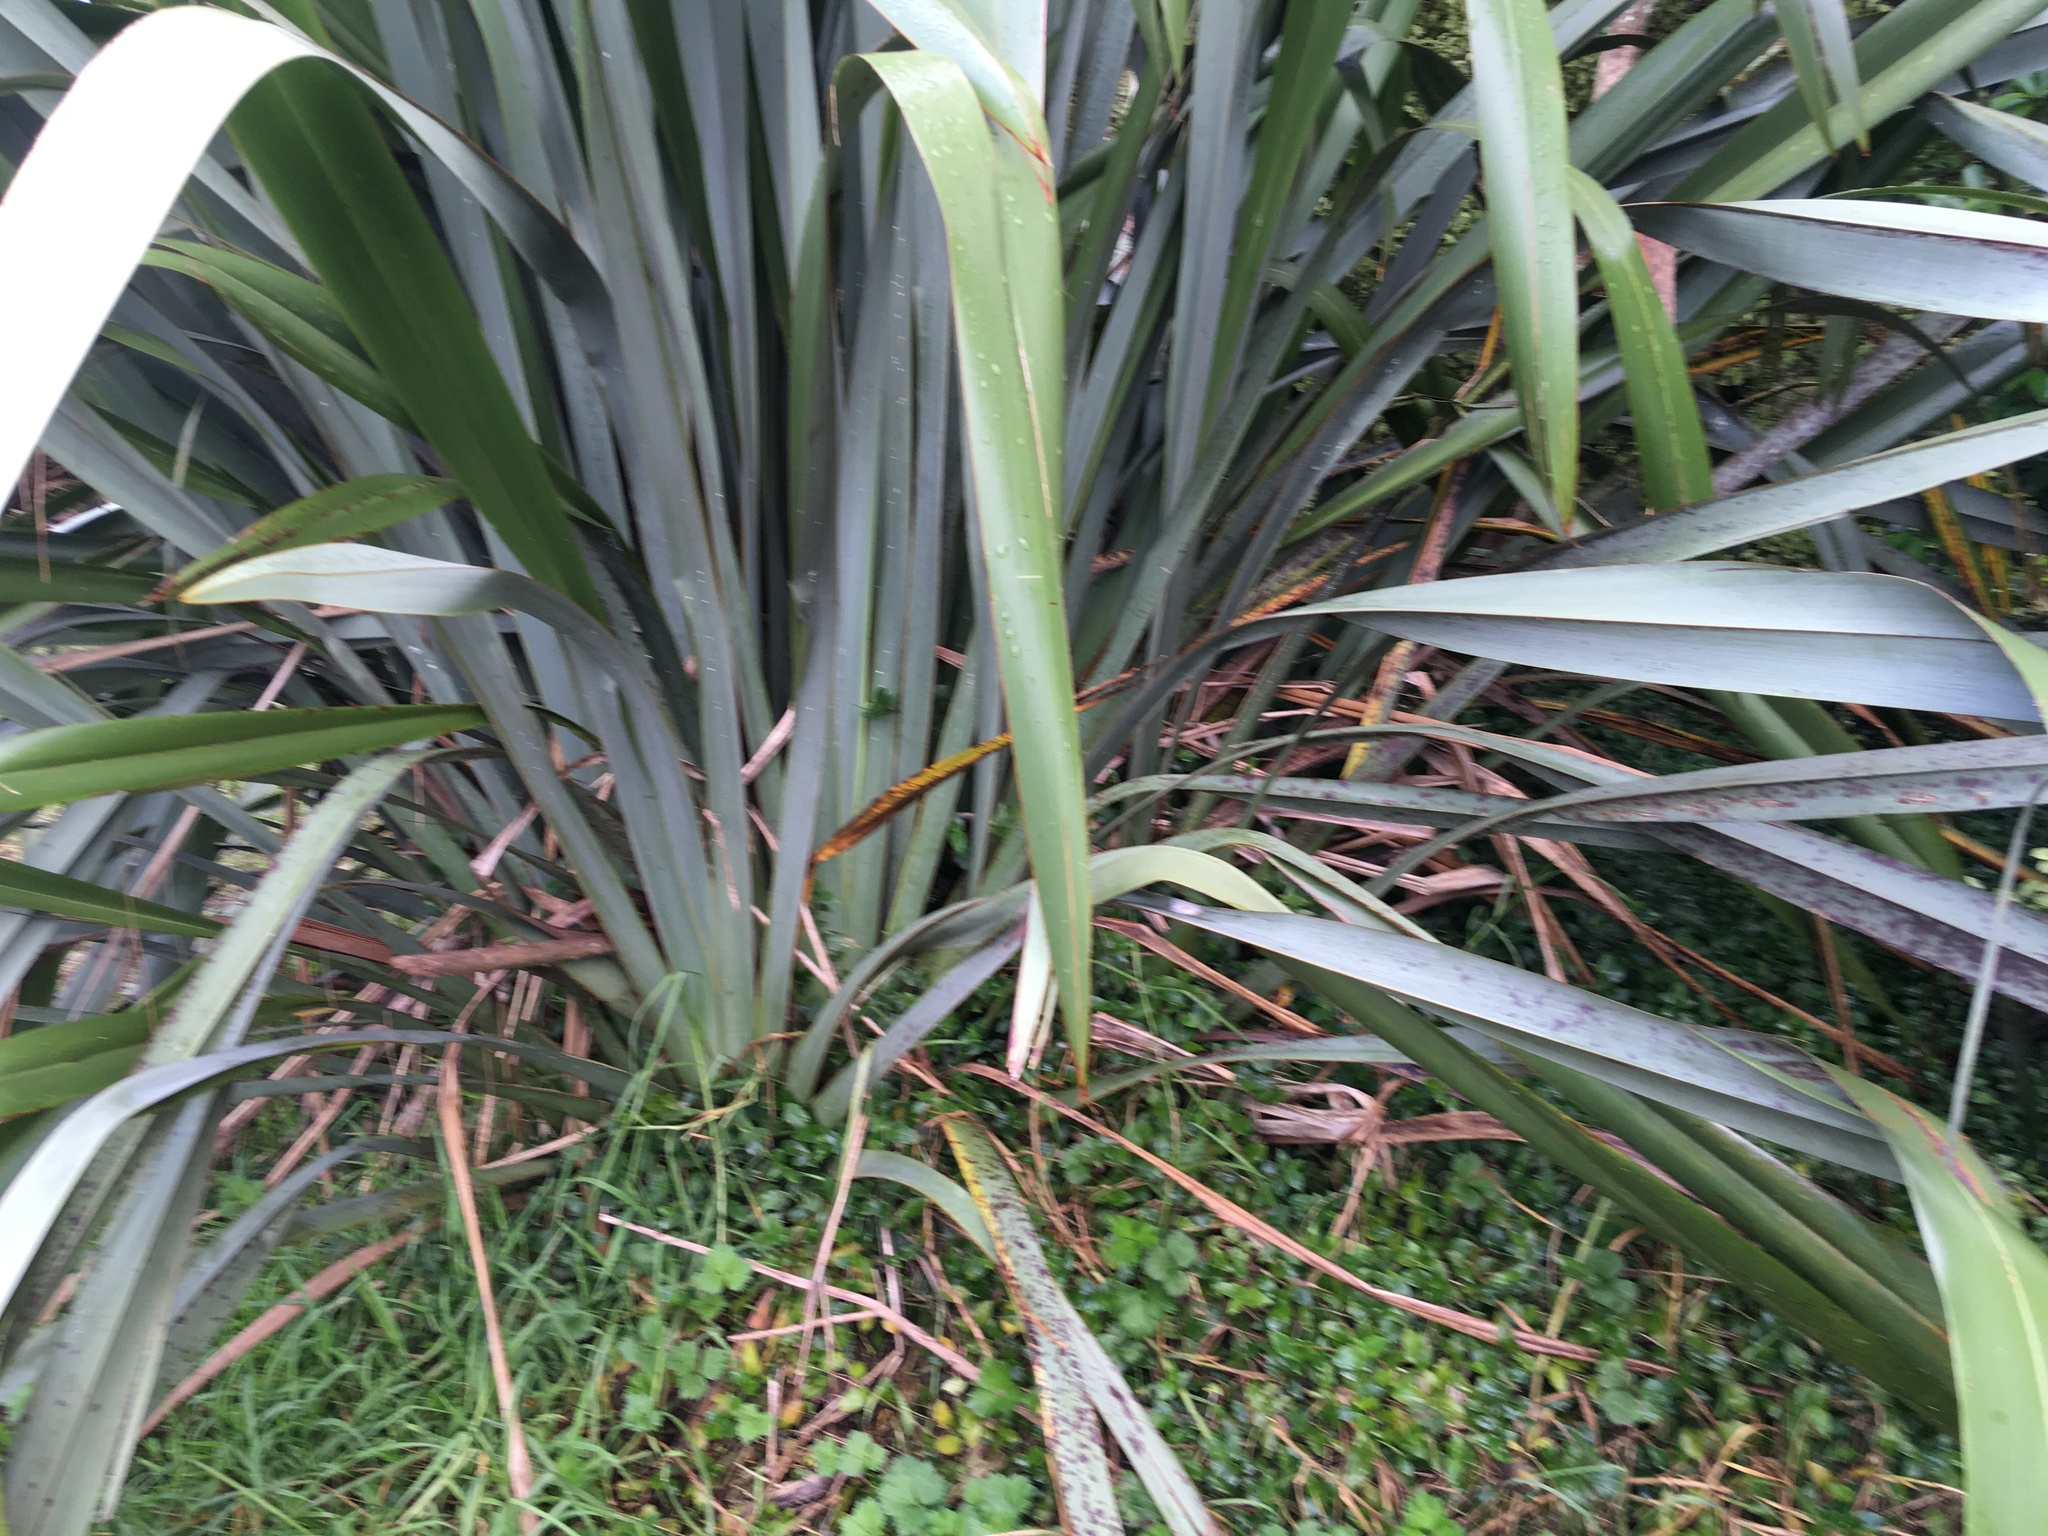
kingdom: Plantae
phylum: Tracheophyta
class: Liliopsida
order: Asparagales
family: Asphodelaceae
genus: Phormium
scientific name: Phormium tenax
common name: New zealand flax
